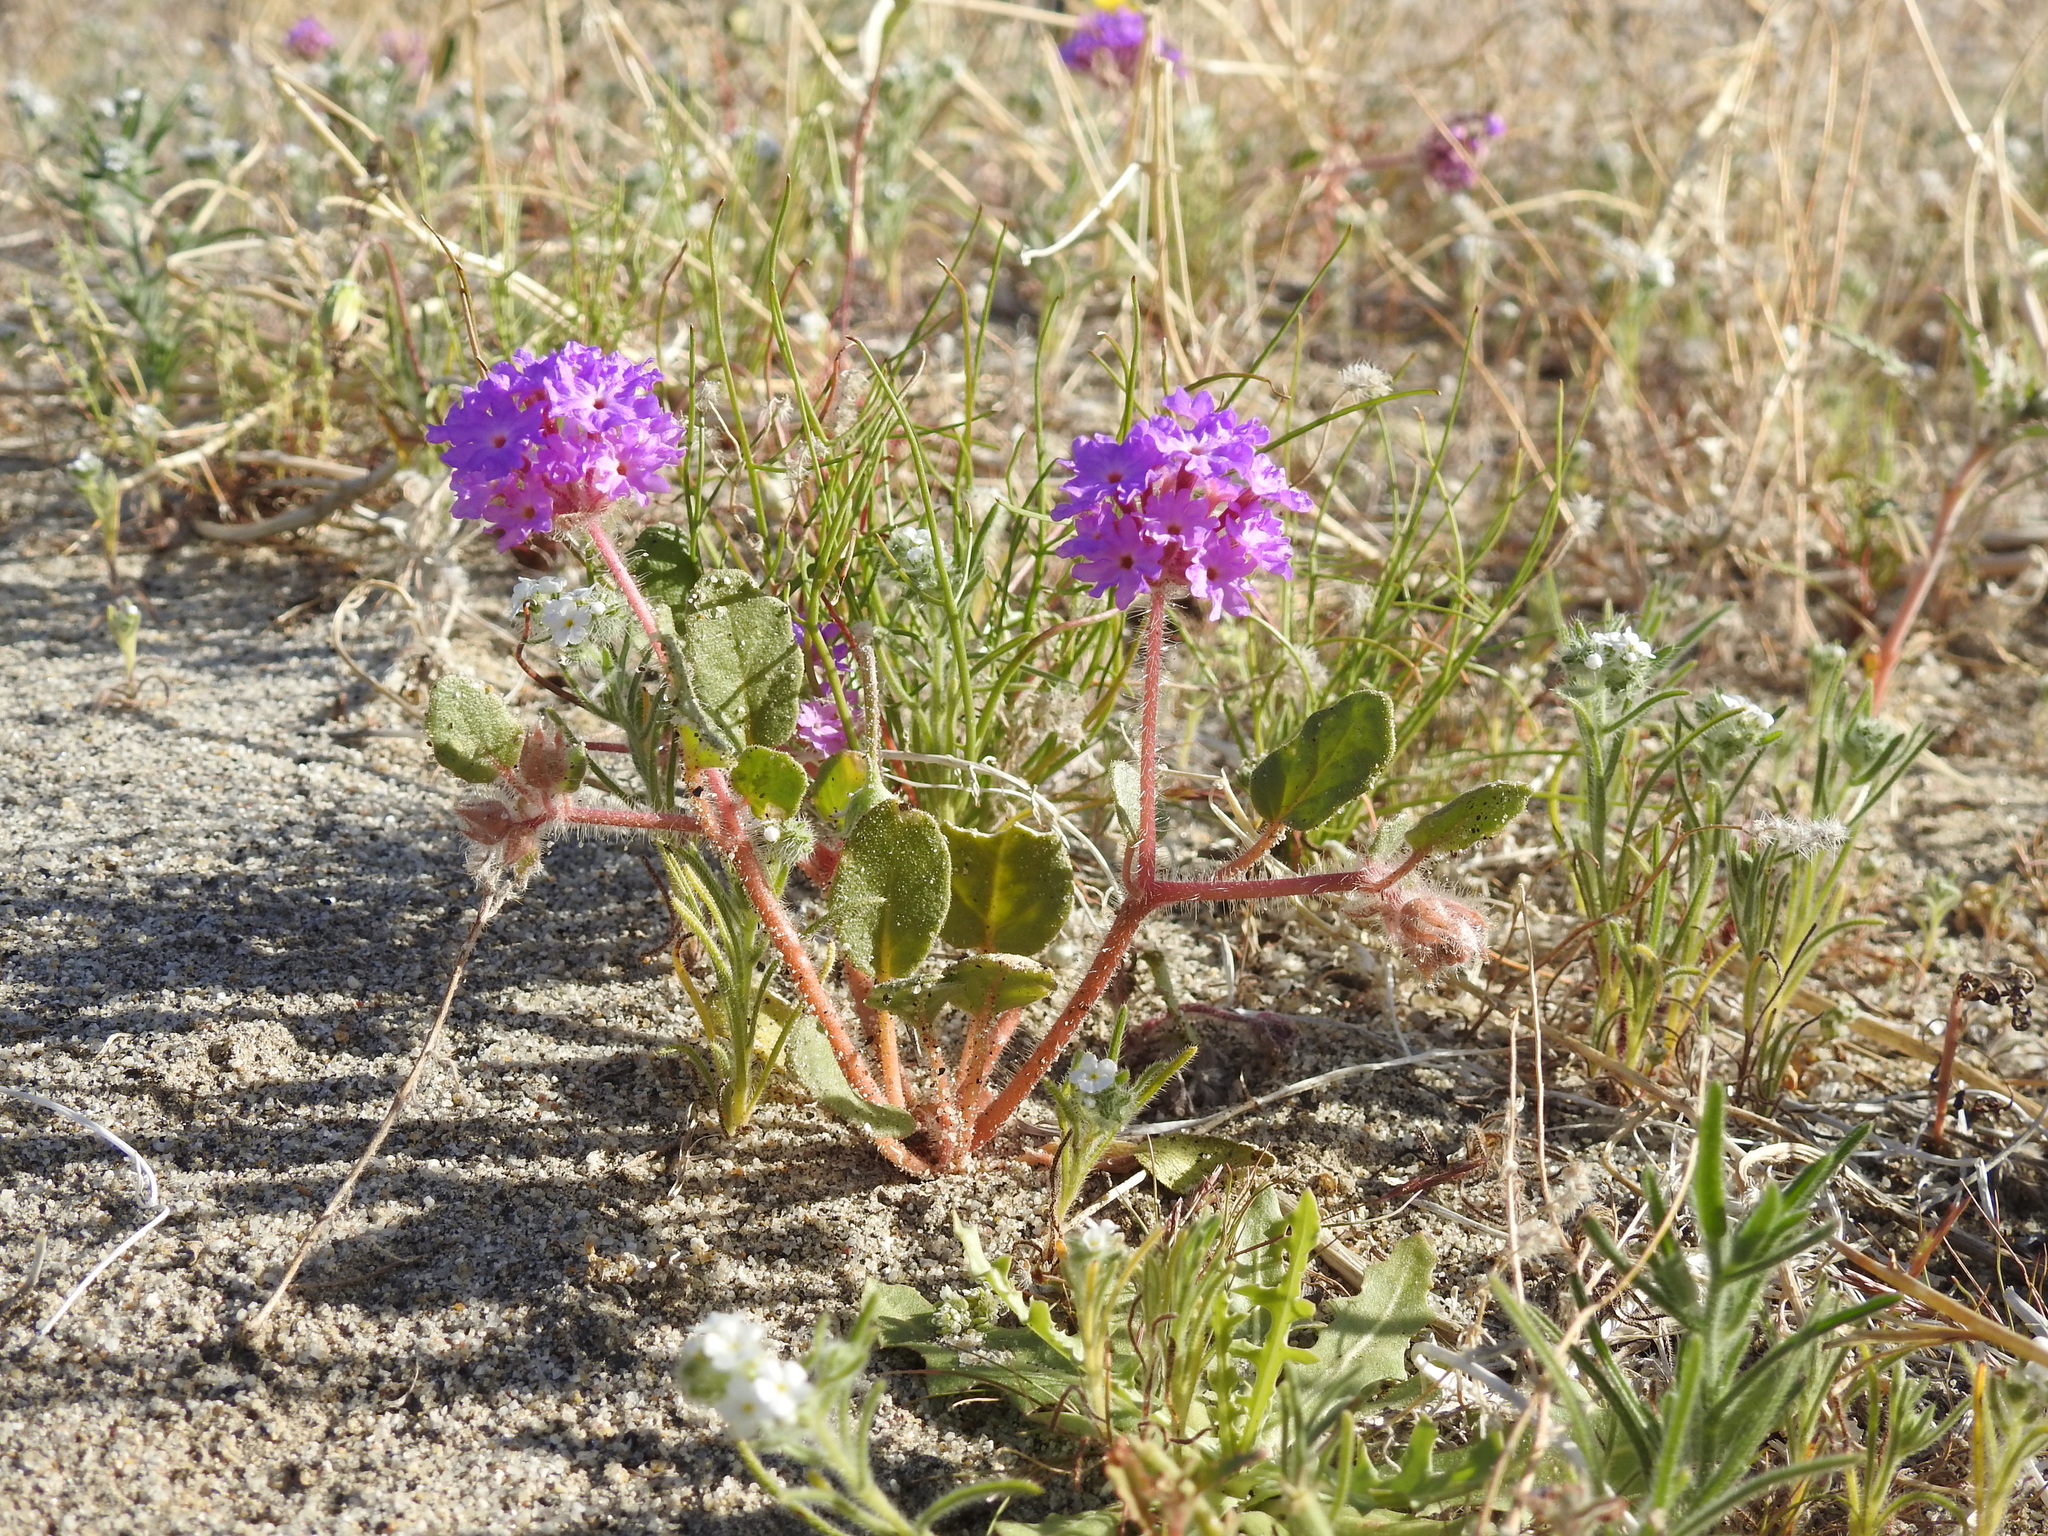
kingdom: Plantae
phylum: Tracheophyta
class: Magnoliopsida
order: Caryophyllales
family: Nyctaginaceae
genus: Abronia
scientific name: Abronia villosa
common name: Desert sand-verbena
